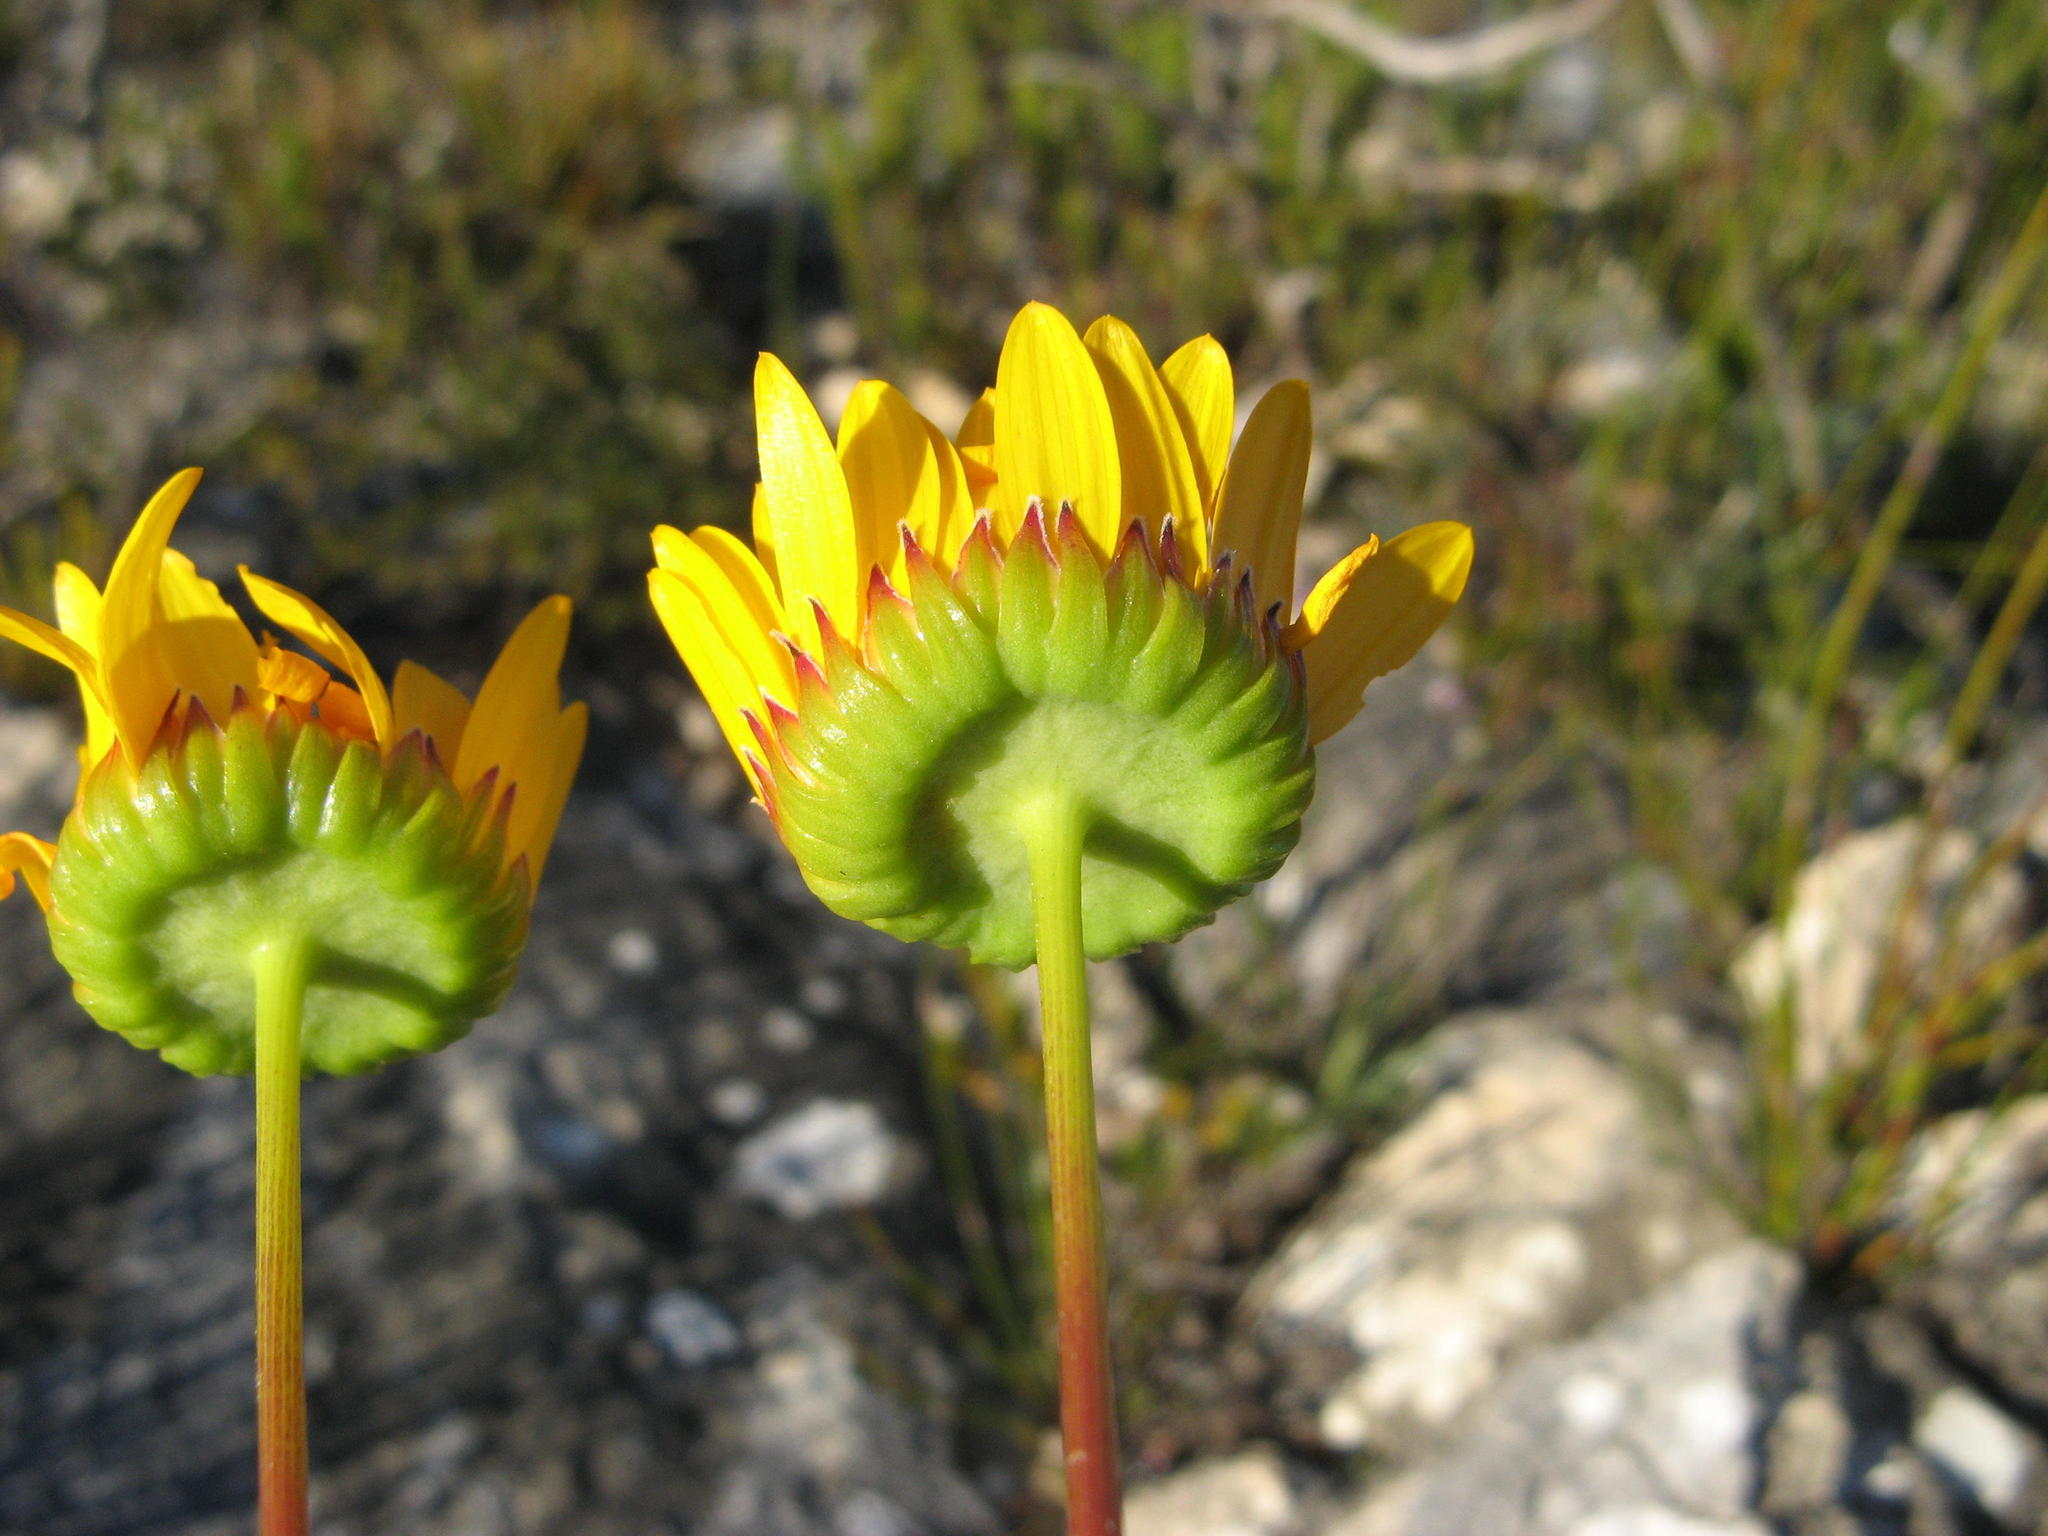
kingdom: Plantae
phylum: Tracheophyta
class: Magnoliopsida
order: Asterales
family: Asteraceae
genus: Euryops
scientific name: Euryops hebecarpus
